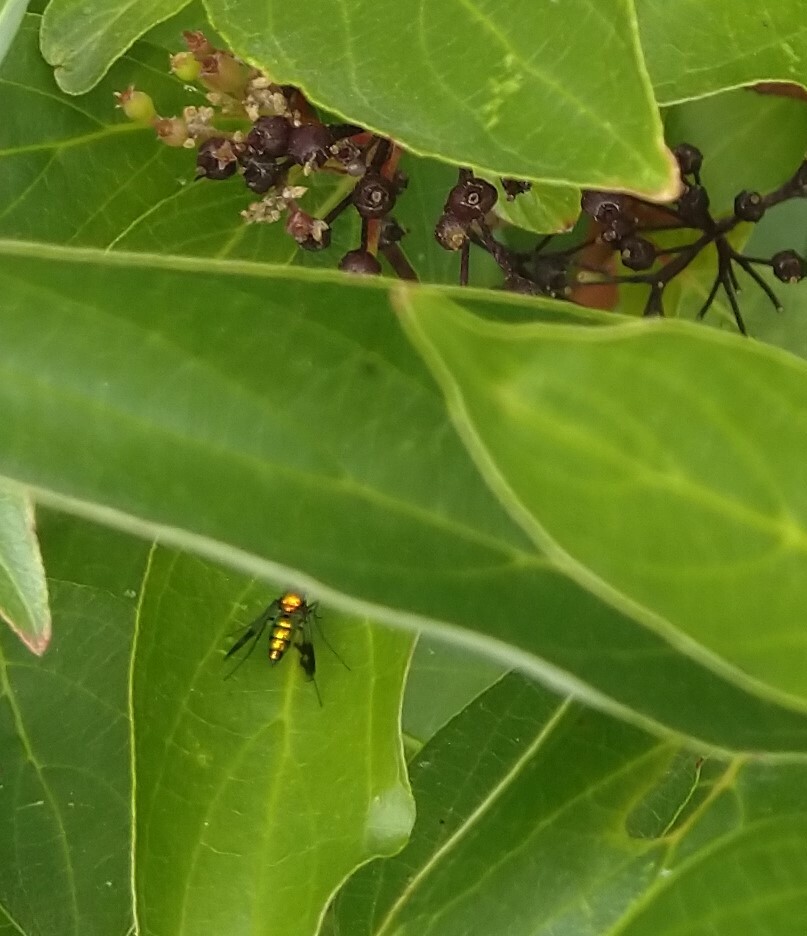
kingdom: Animalia
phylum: Arthropoda
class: Insecta
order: Diptera
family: Dolichopodidae
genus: Condylostylus
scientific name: Condylostylus patibulatus
